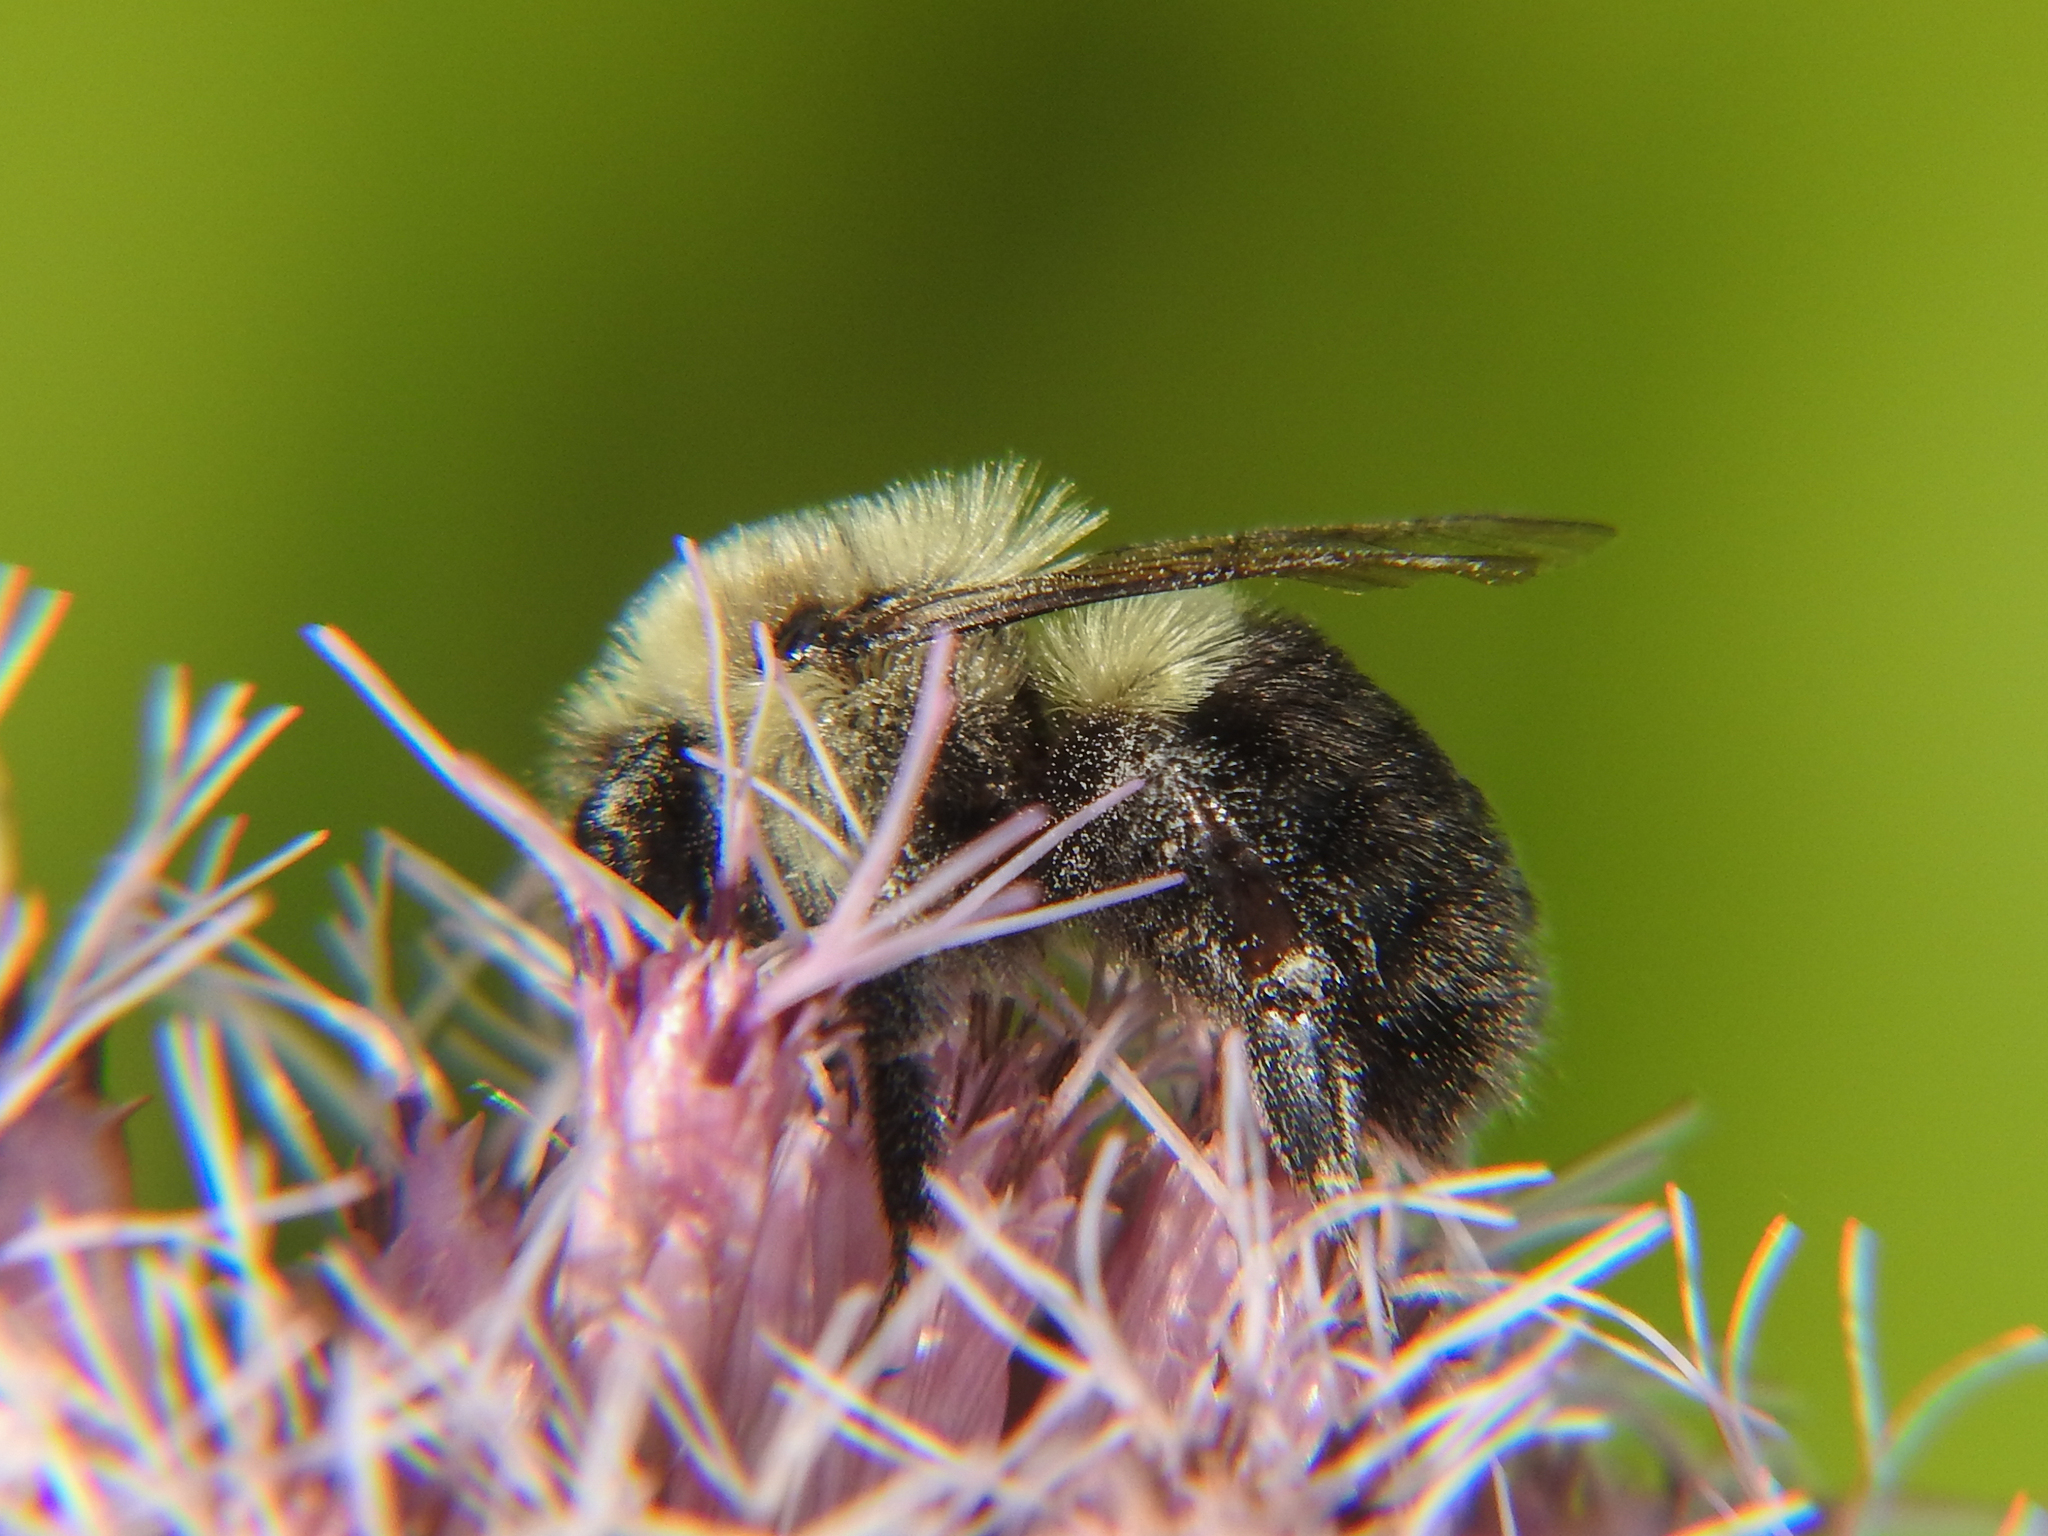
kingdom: Animalia
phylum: Arthropoda
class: Insecta
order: Hymenoptera
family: Apidae
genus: Bombus
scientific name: Bombus impatiens
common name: Common eastern bumble bee
